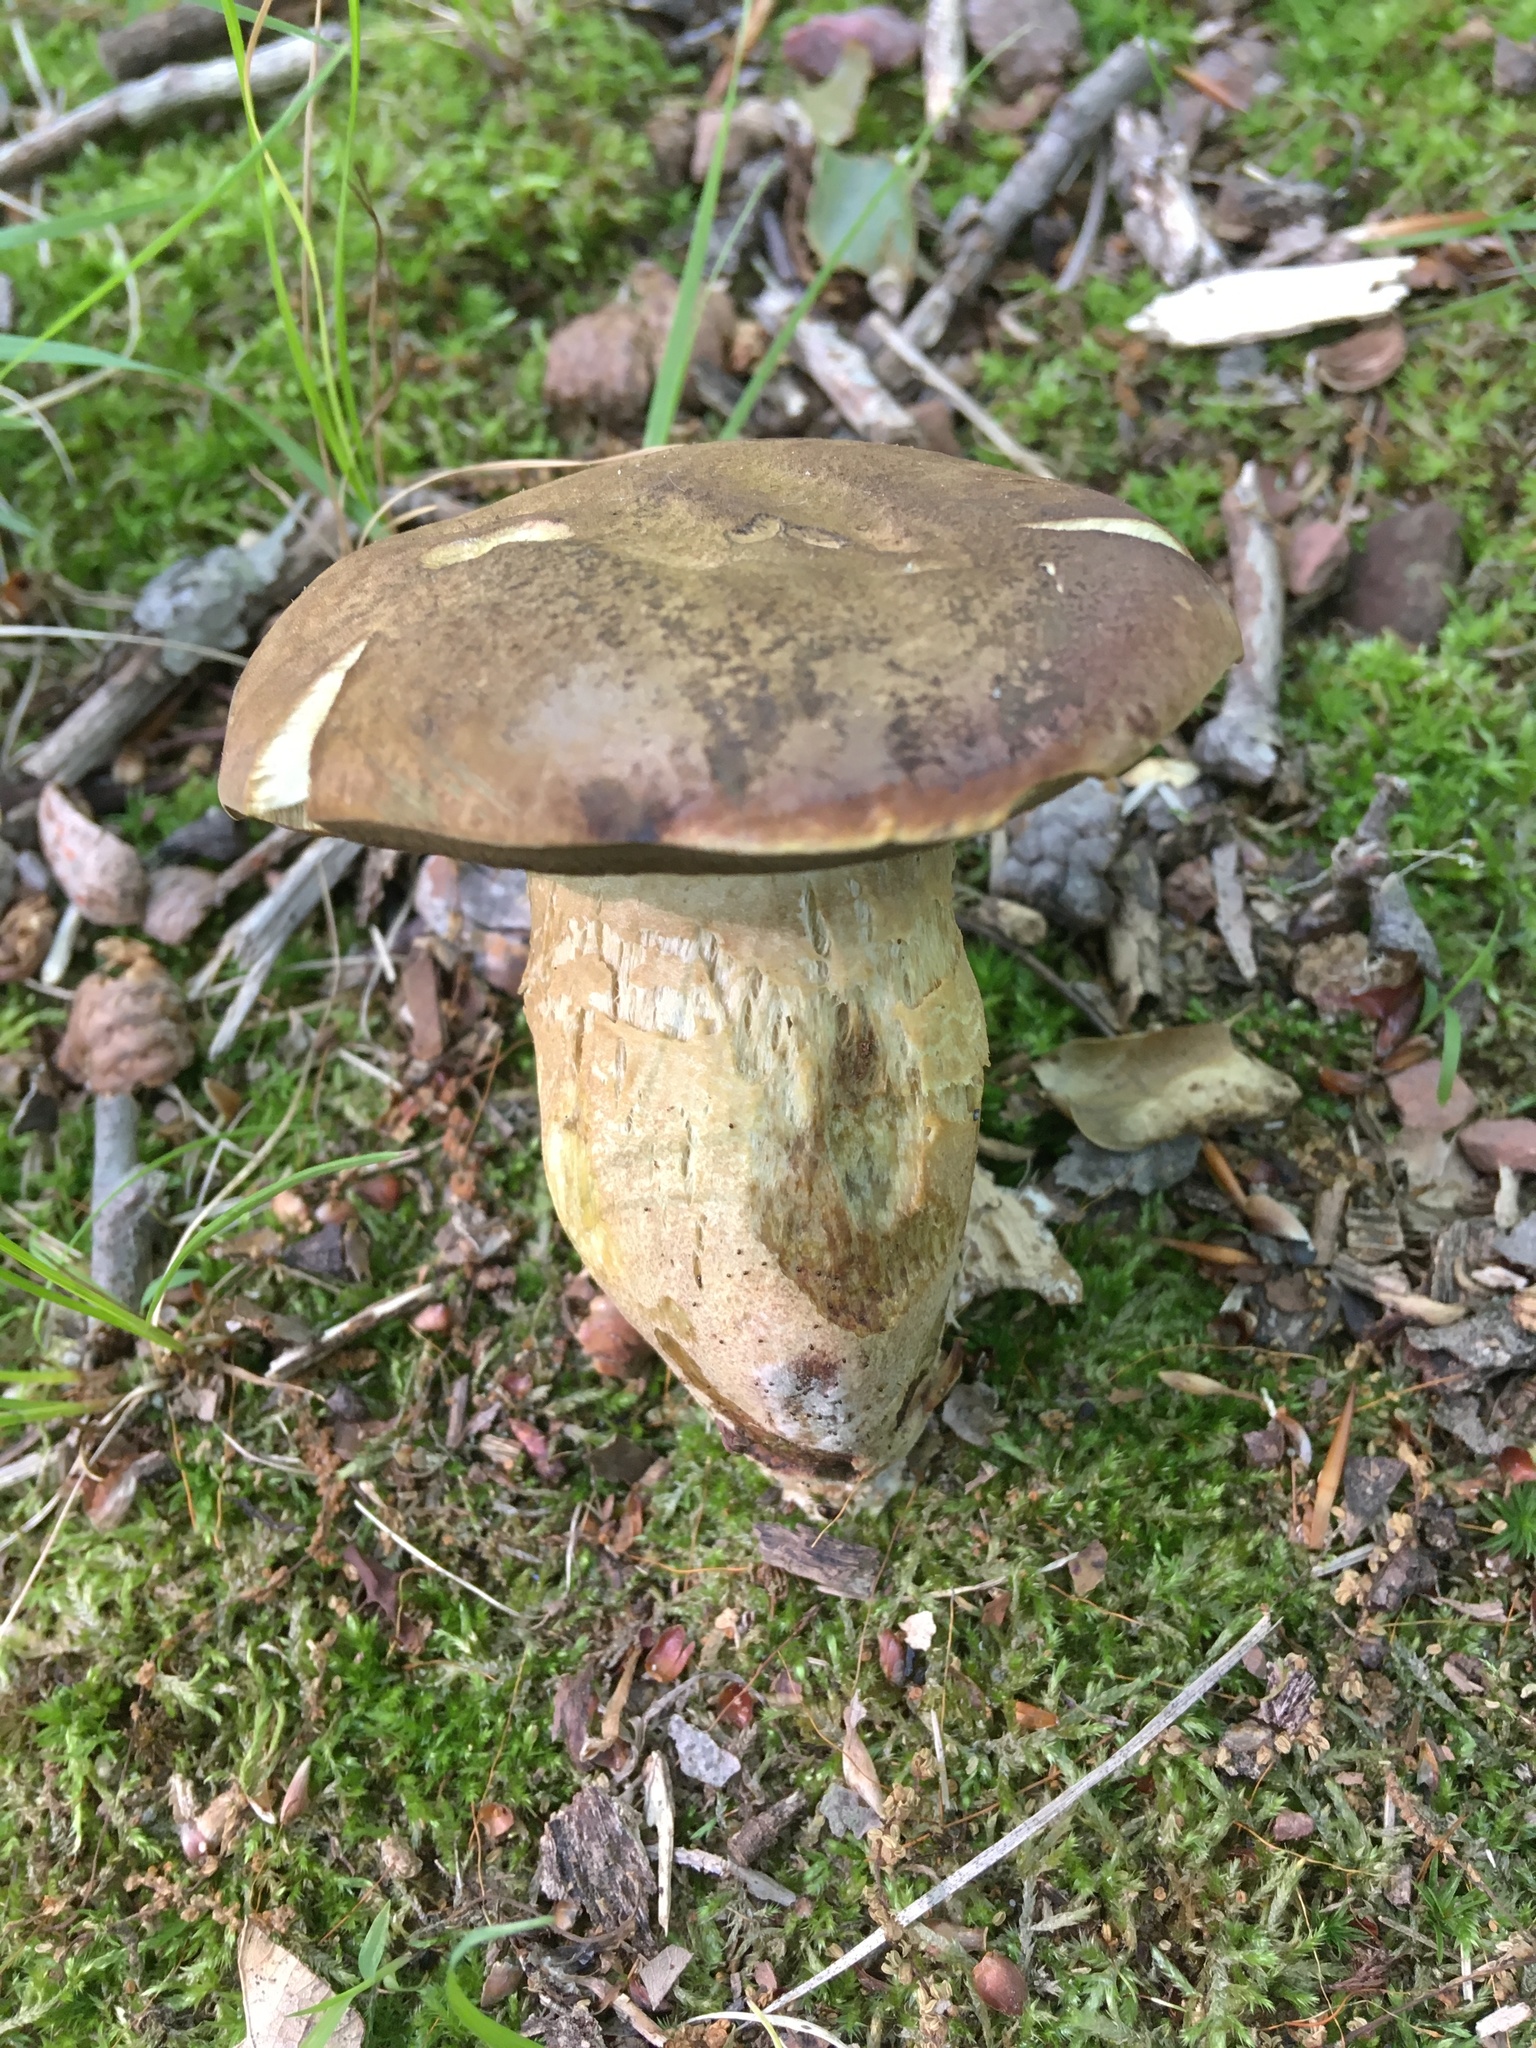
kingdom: Fungi
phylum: Basidiomycota
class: Agaricomycetes
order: Boletales
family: Boletaceae
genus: Boletus
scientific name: Boletus vermiculosoides
